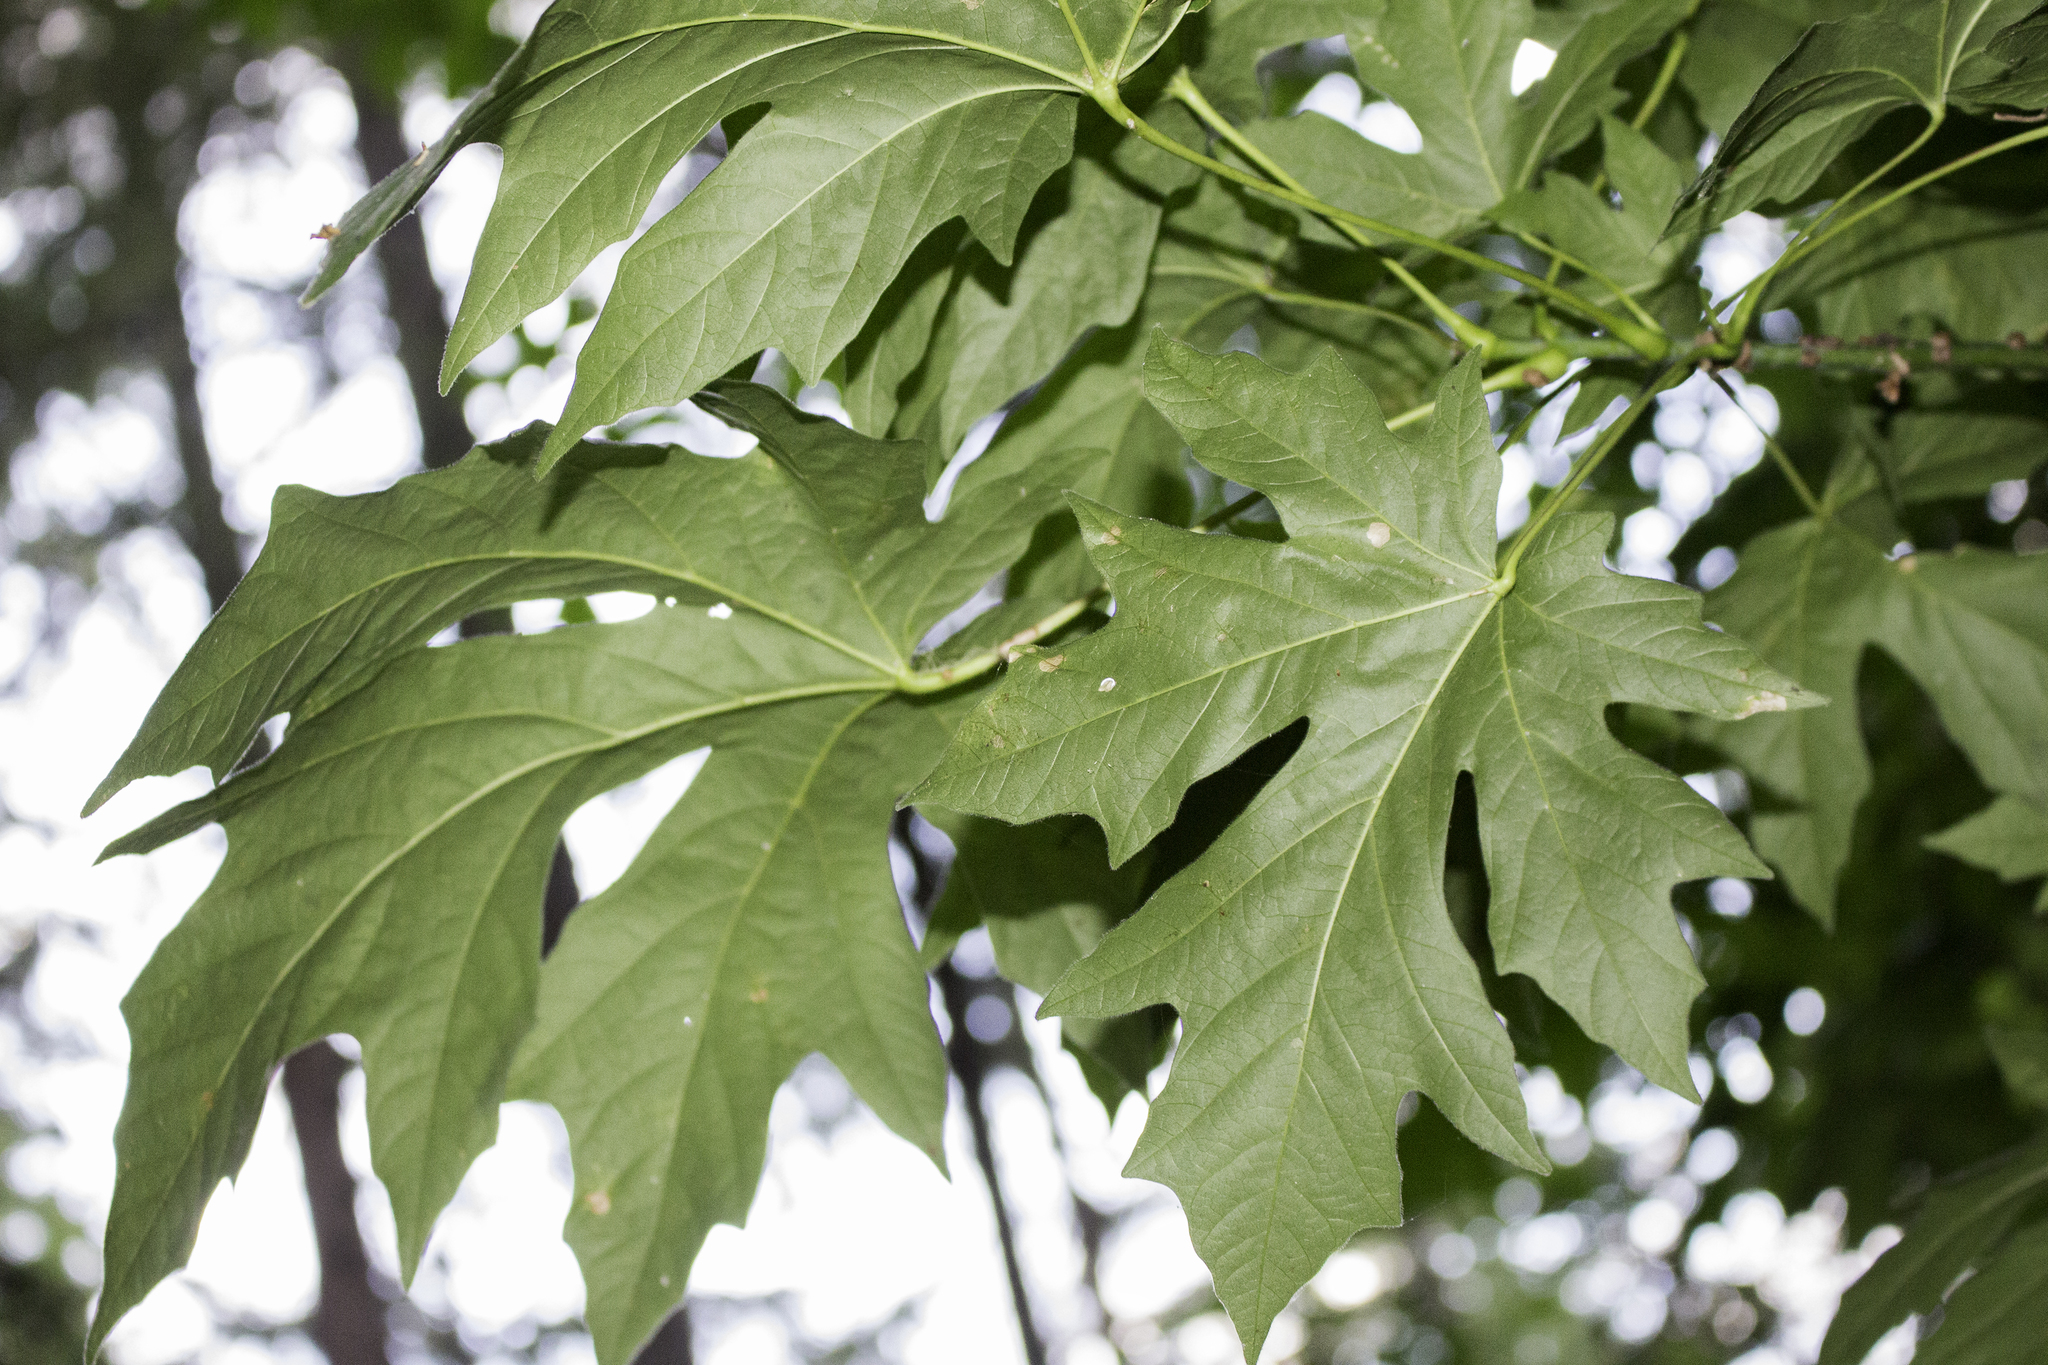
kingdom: Plantae
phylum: Tracheophyta
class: Magnoliopsida
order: Sapindales
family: Sapindaceae
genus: Acer
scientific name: Acer macrophyllum
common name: Oregon maple
